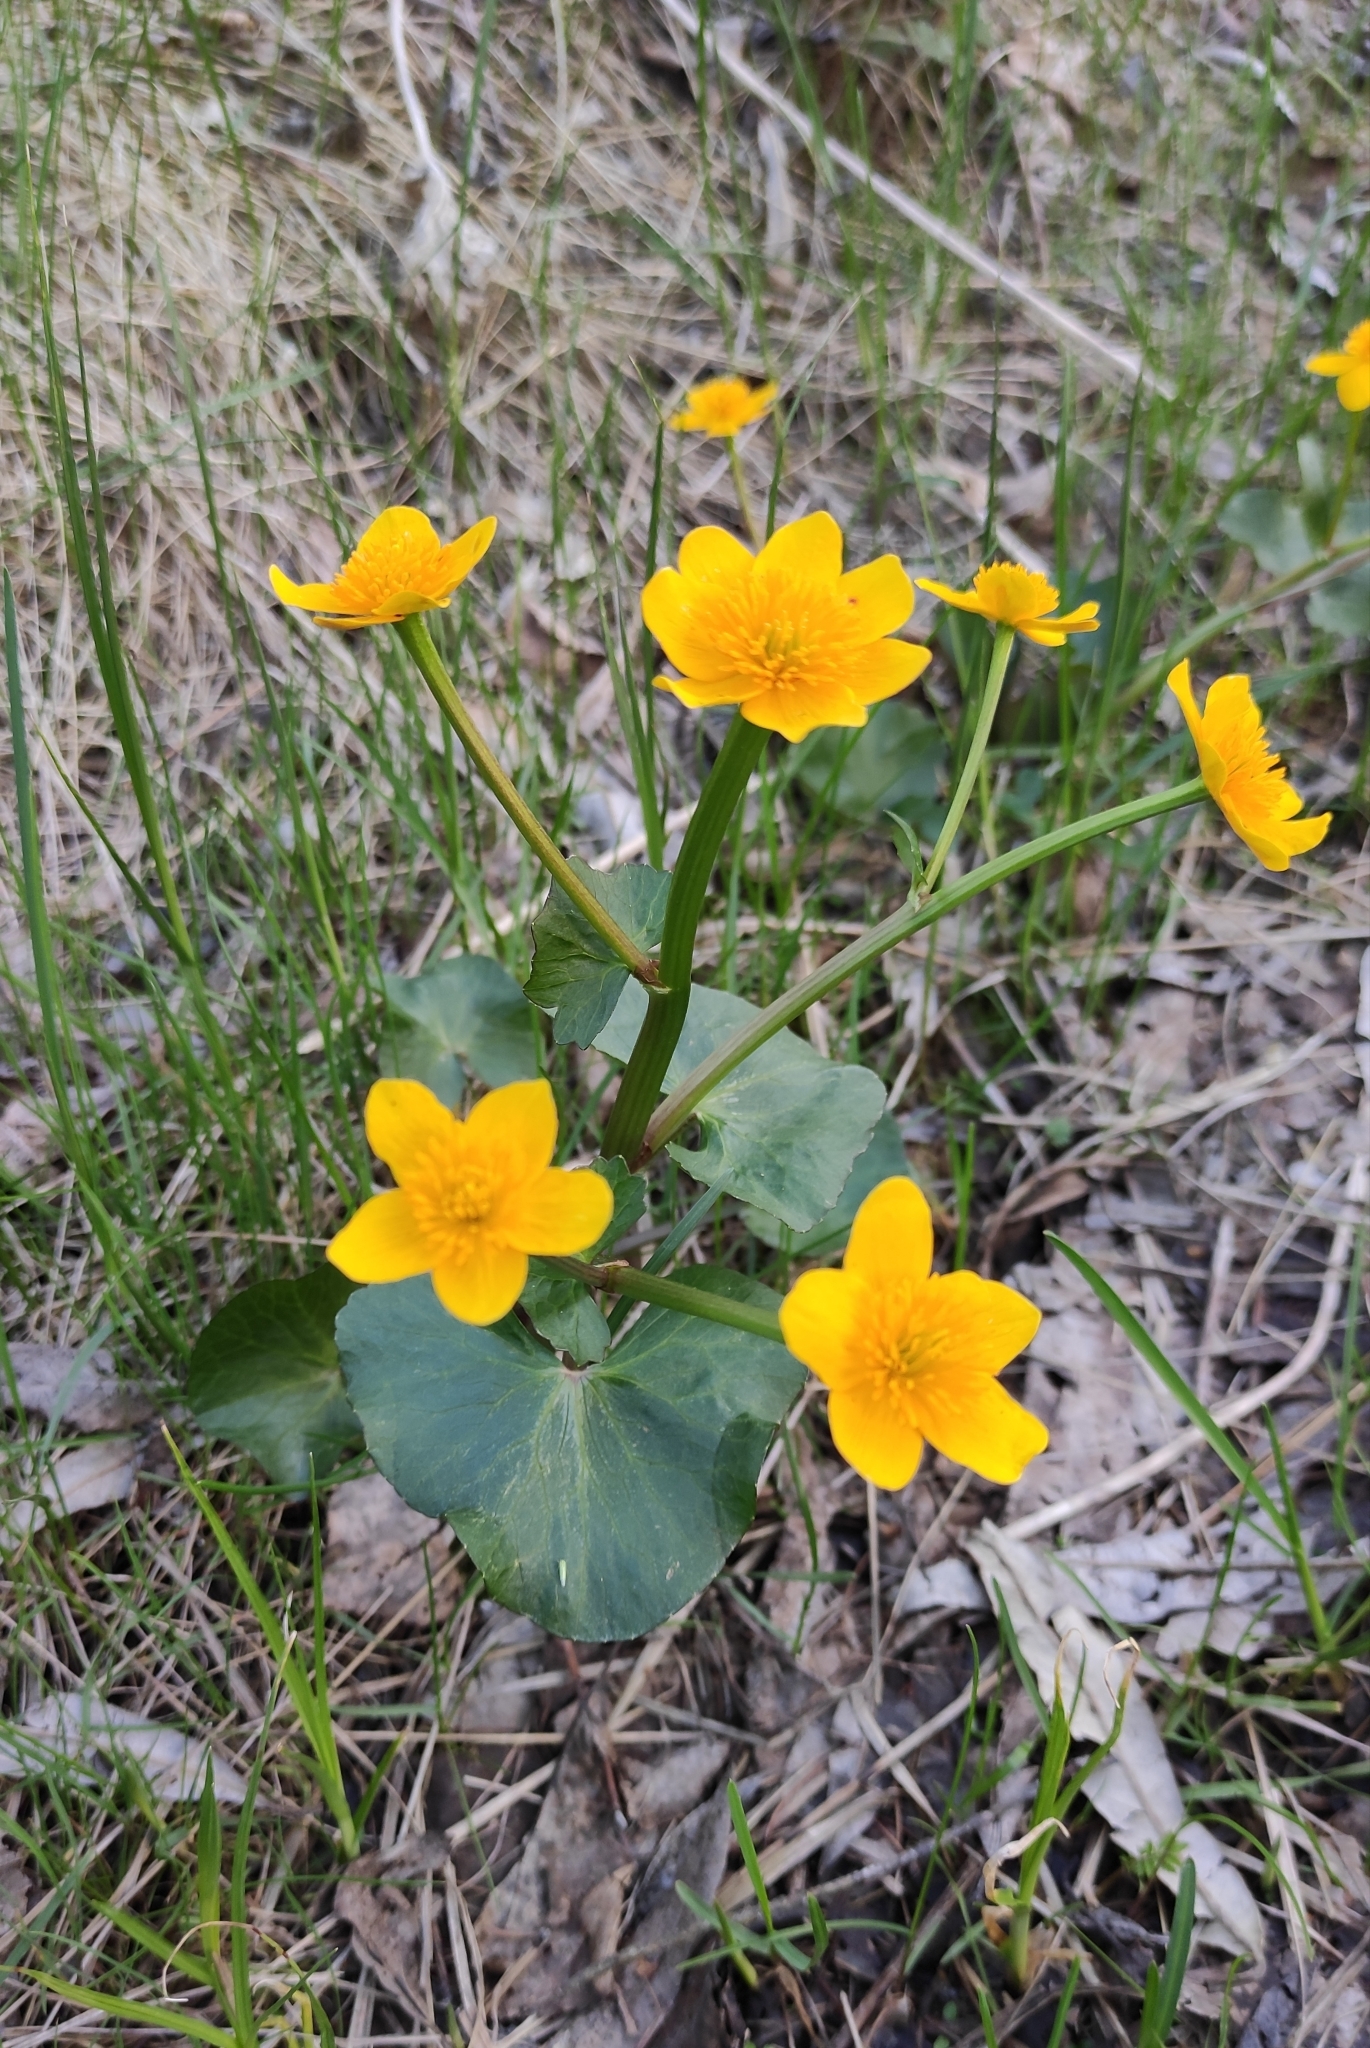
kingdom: Plantae
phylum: Tracheophyta
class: Magnoliopsida
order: Ranunculales
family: Ranunculaceae
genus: Caltha
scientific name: Caltha palustris
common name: Marsh marigold
